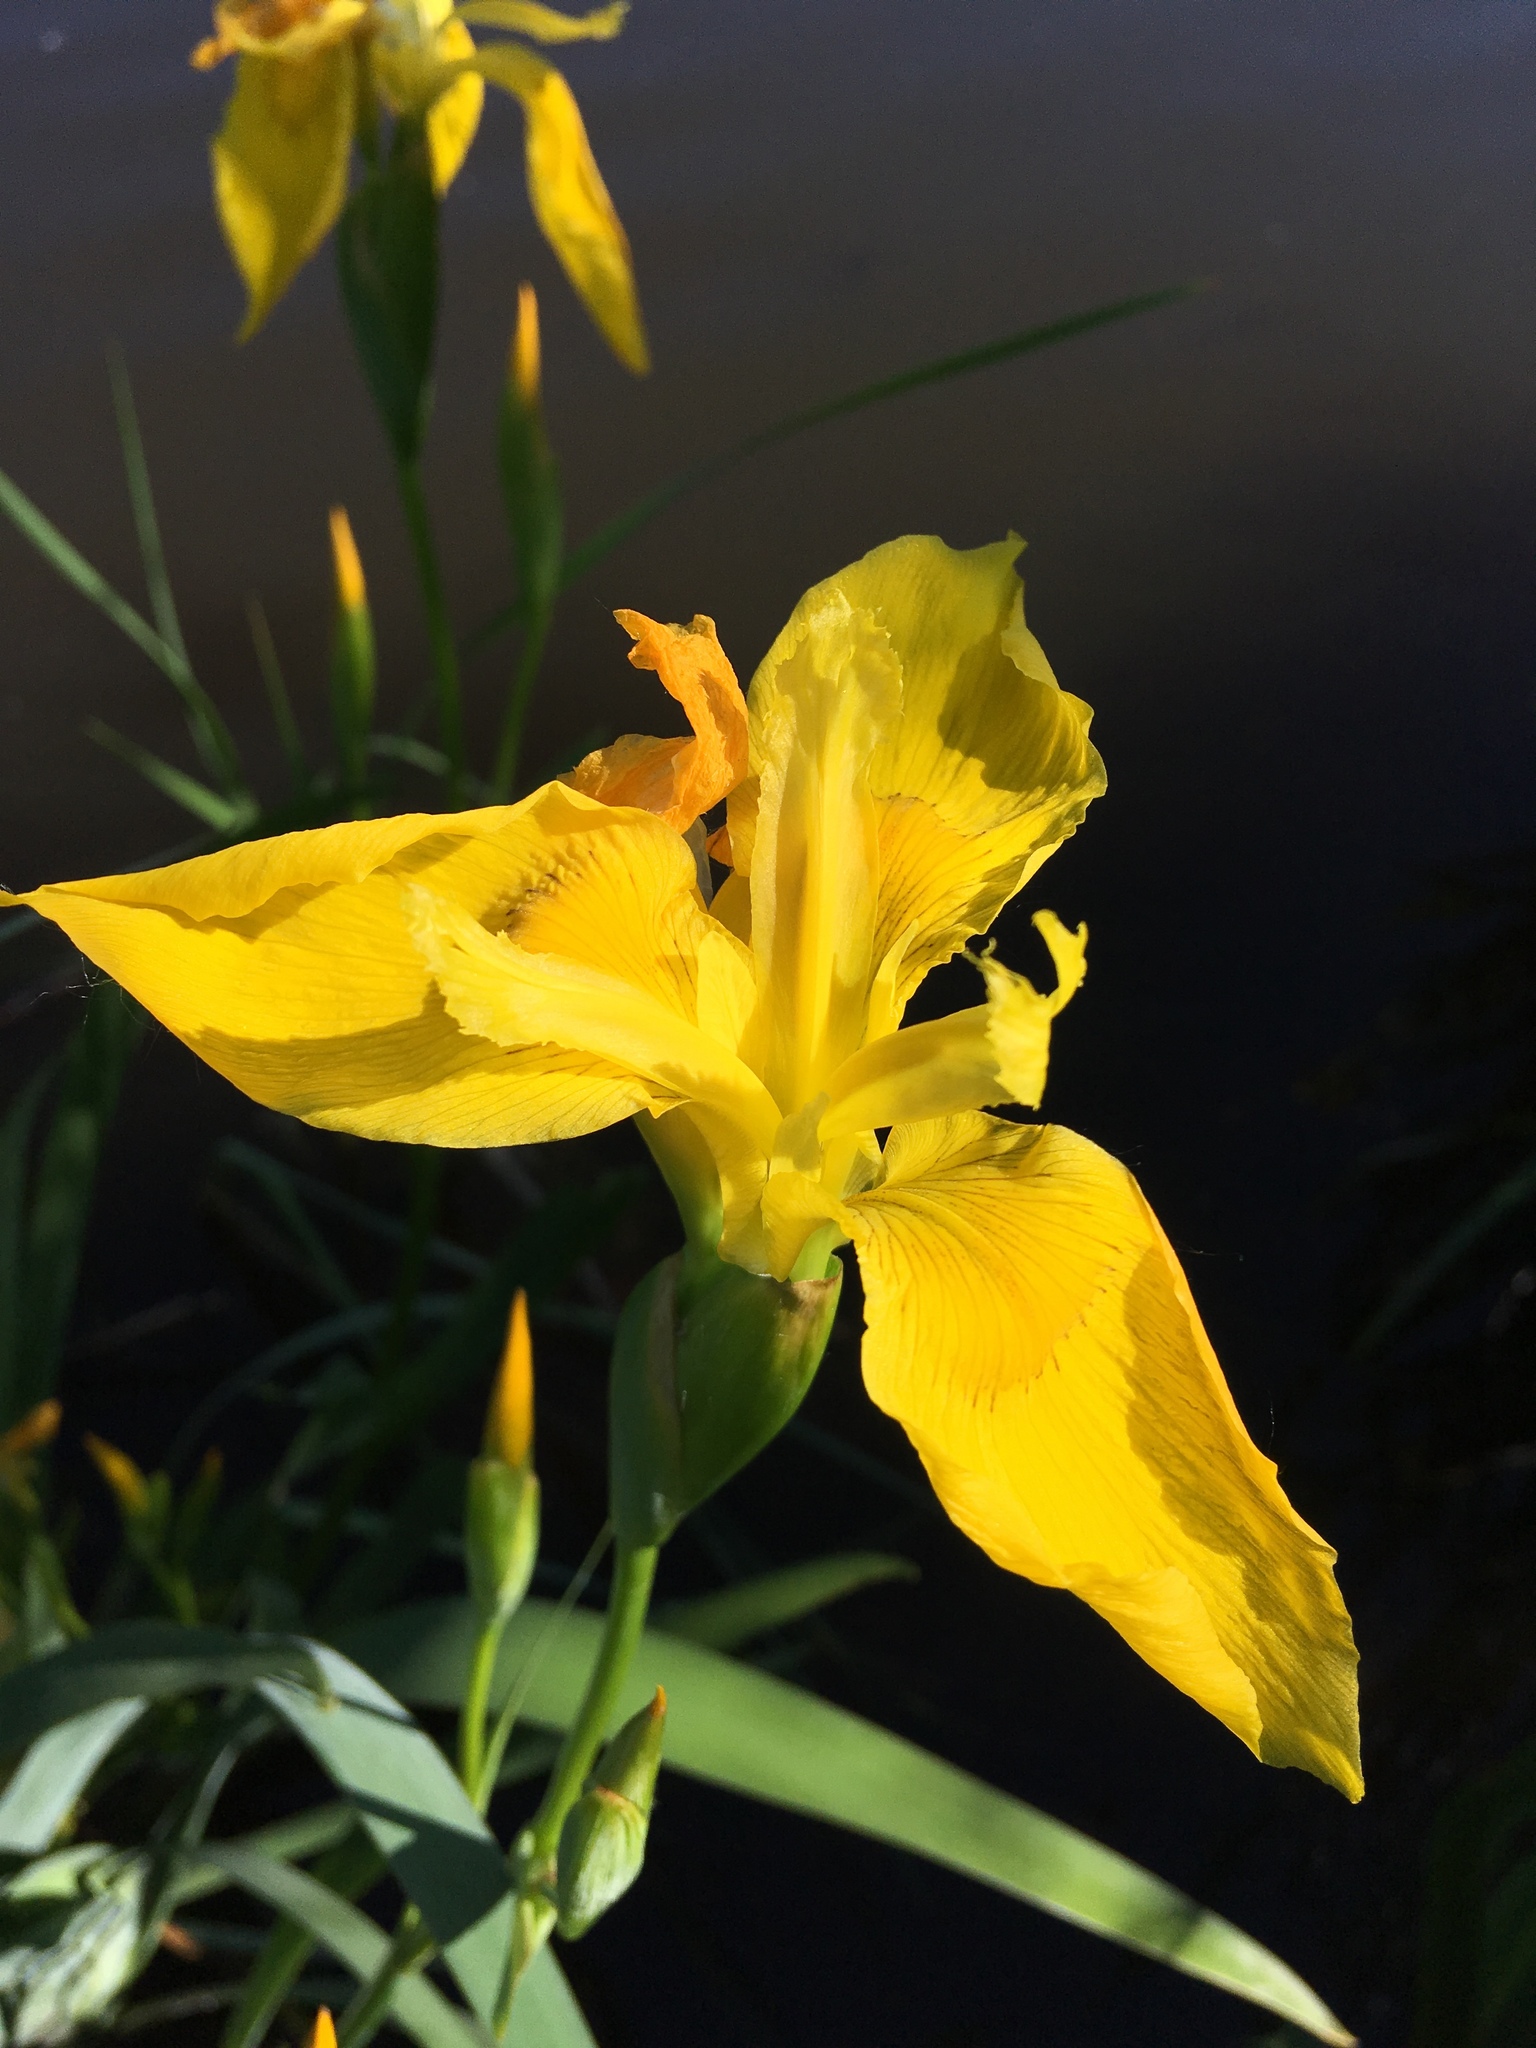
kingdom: Plantae
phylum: Tracheophyta
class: Liliopsida
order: Asparagales
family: Iridaceae
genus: Iris
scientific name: Iris pseudacorus
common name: Yellow flag
